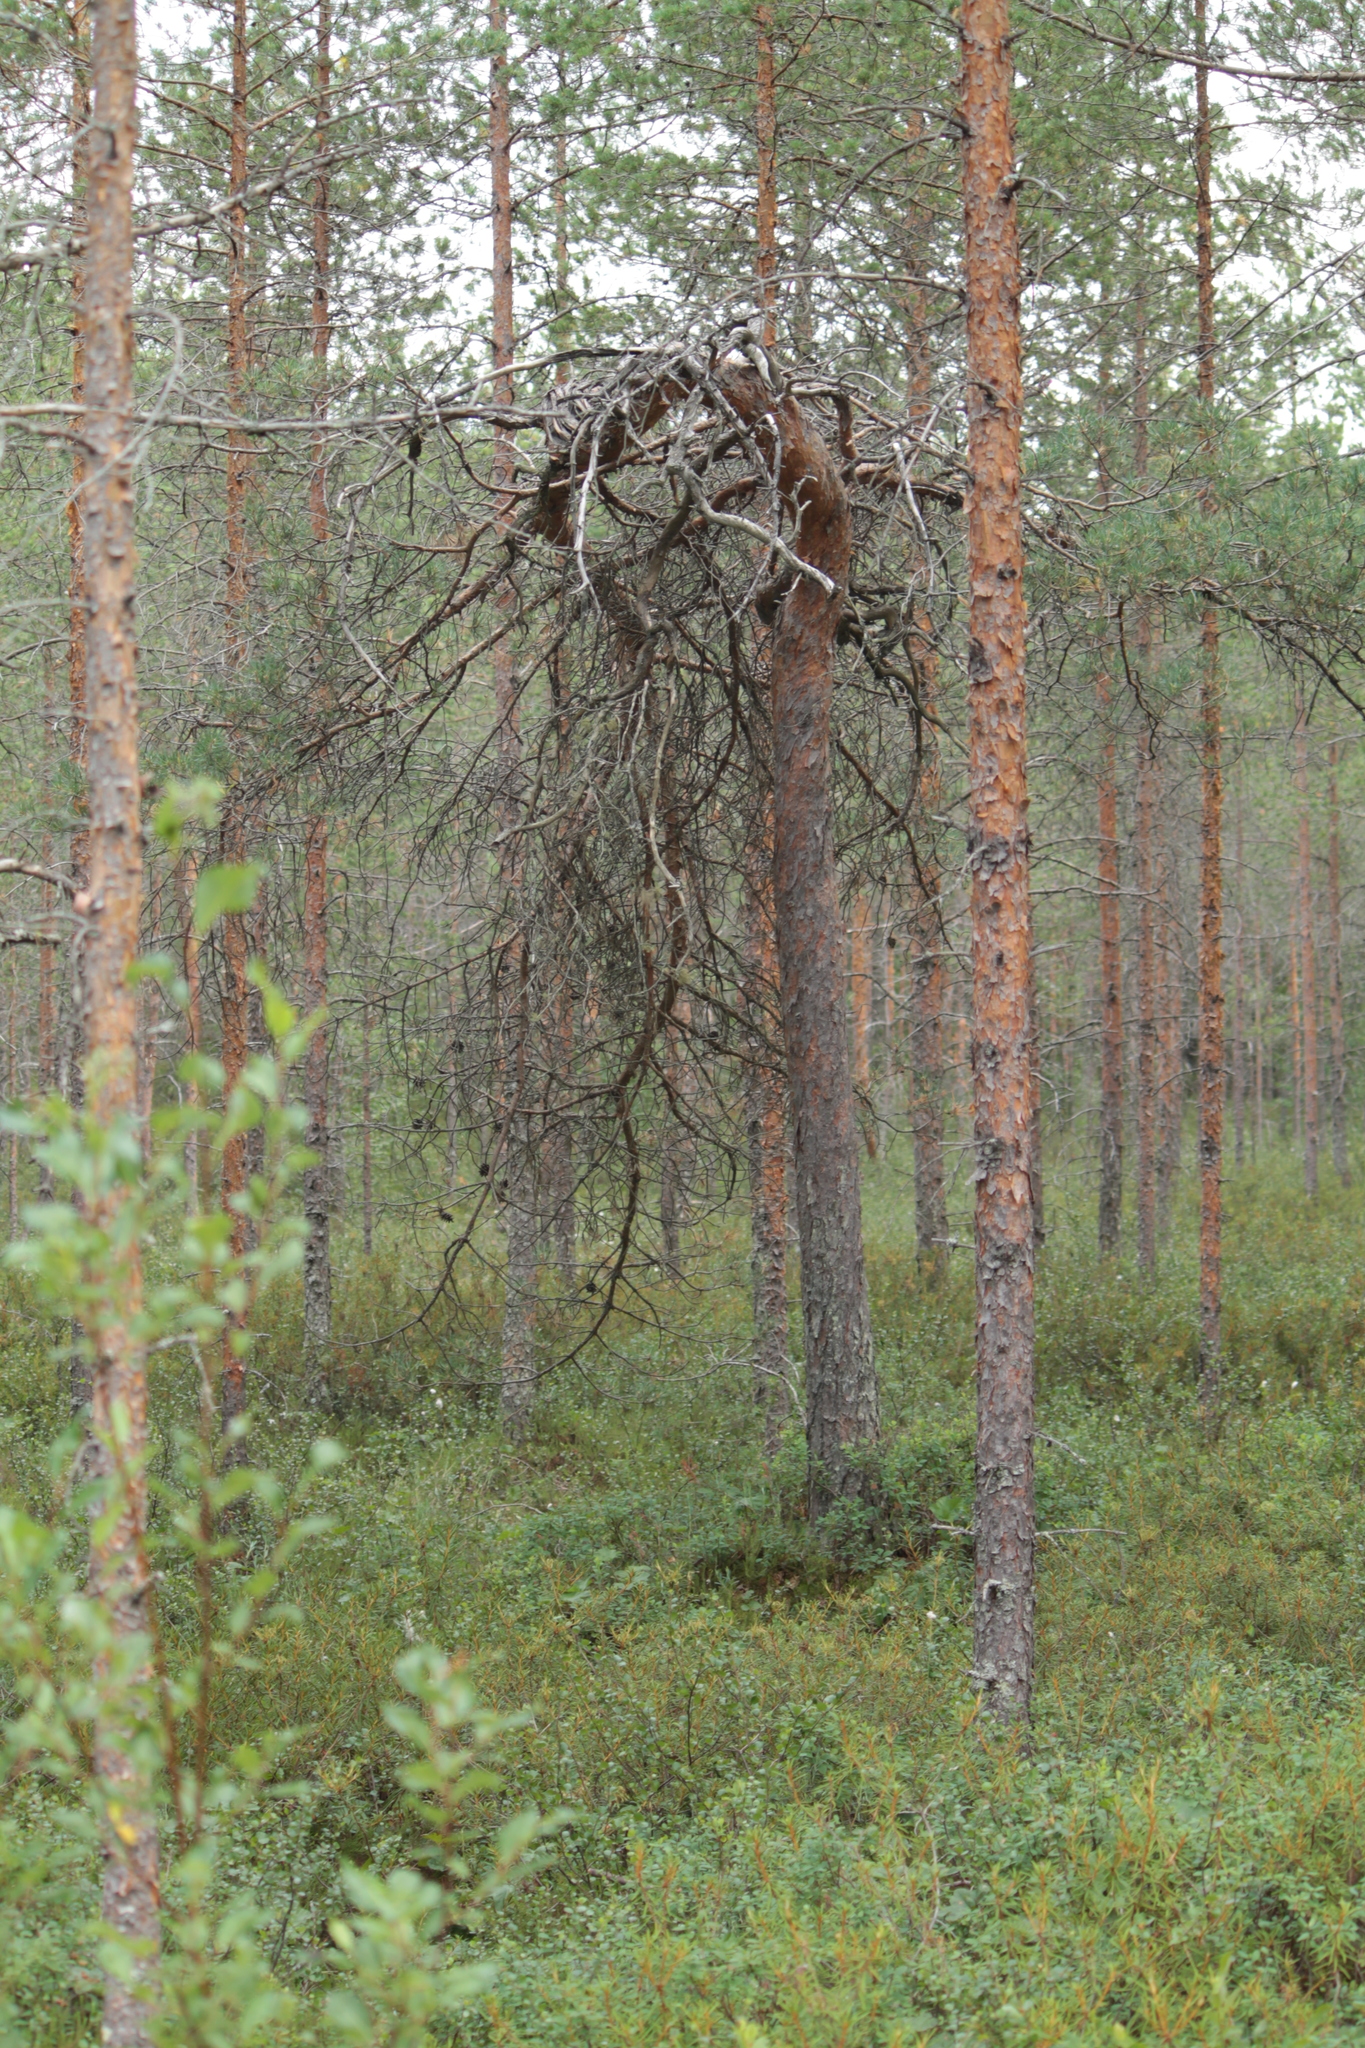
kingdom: Plantae
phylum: Tracheophyta
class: Pinopsida
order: Pinales
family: Pinaceae
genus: Pinus
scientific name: Pinus sylvestris
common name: Scots pine
